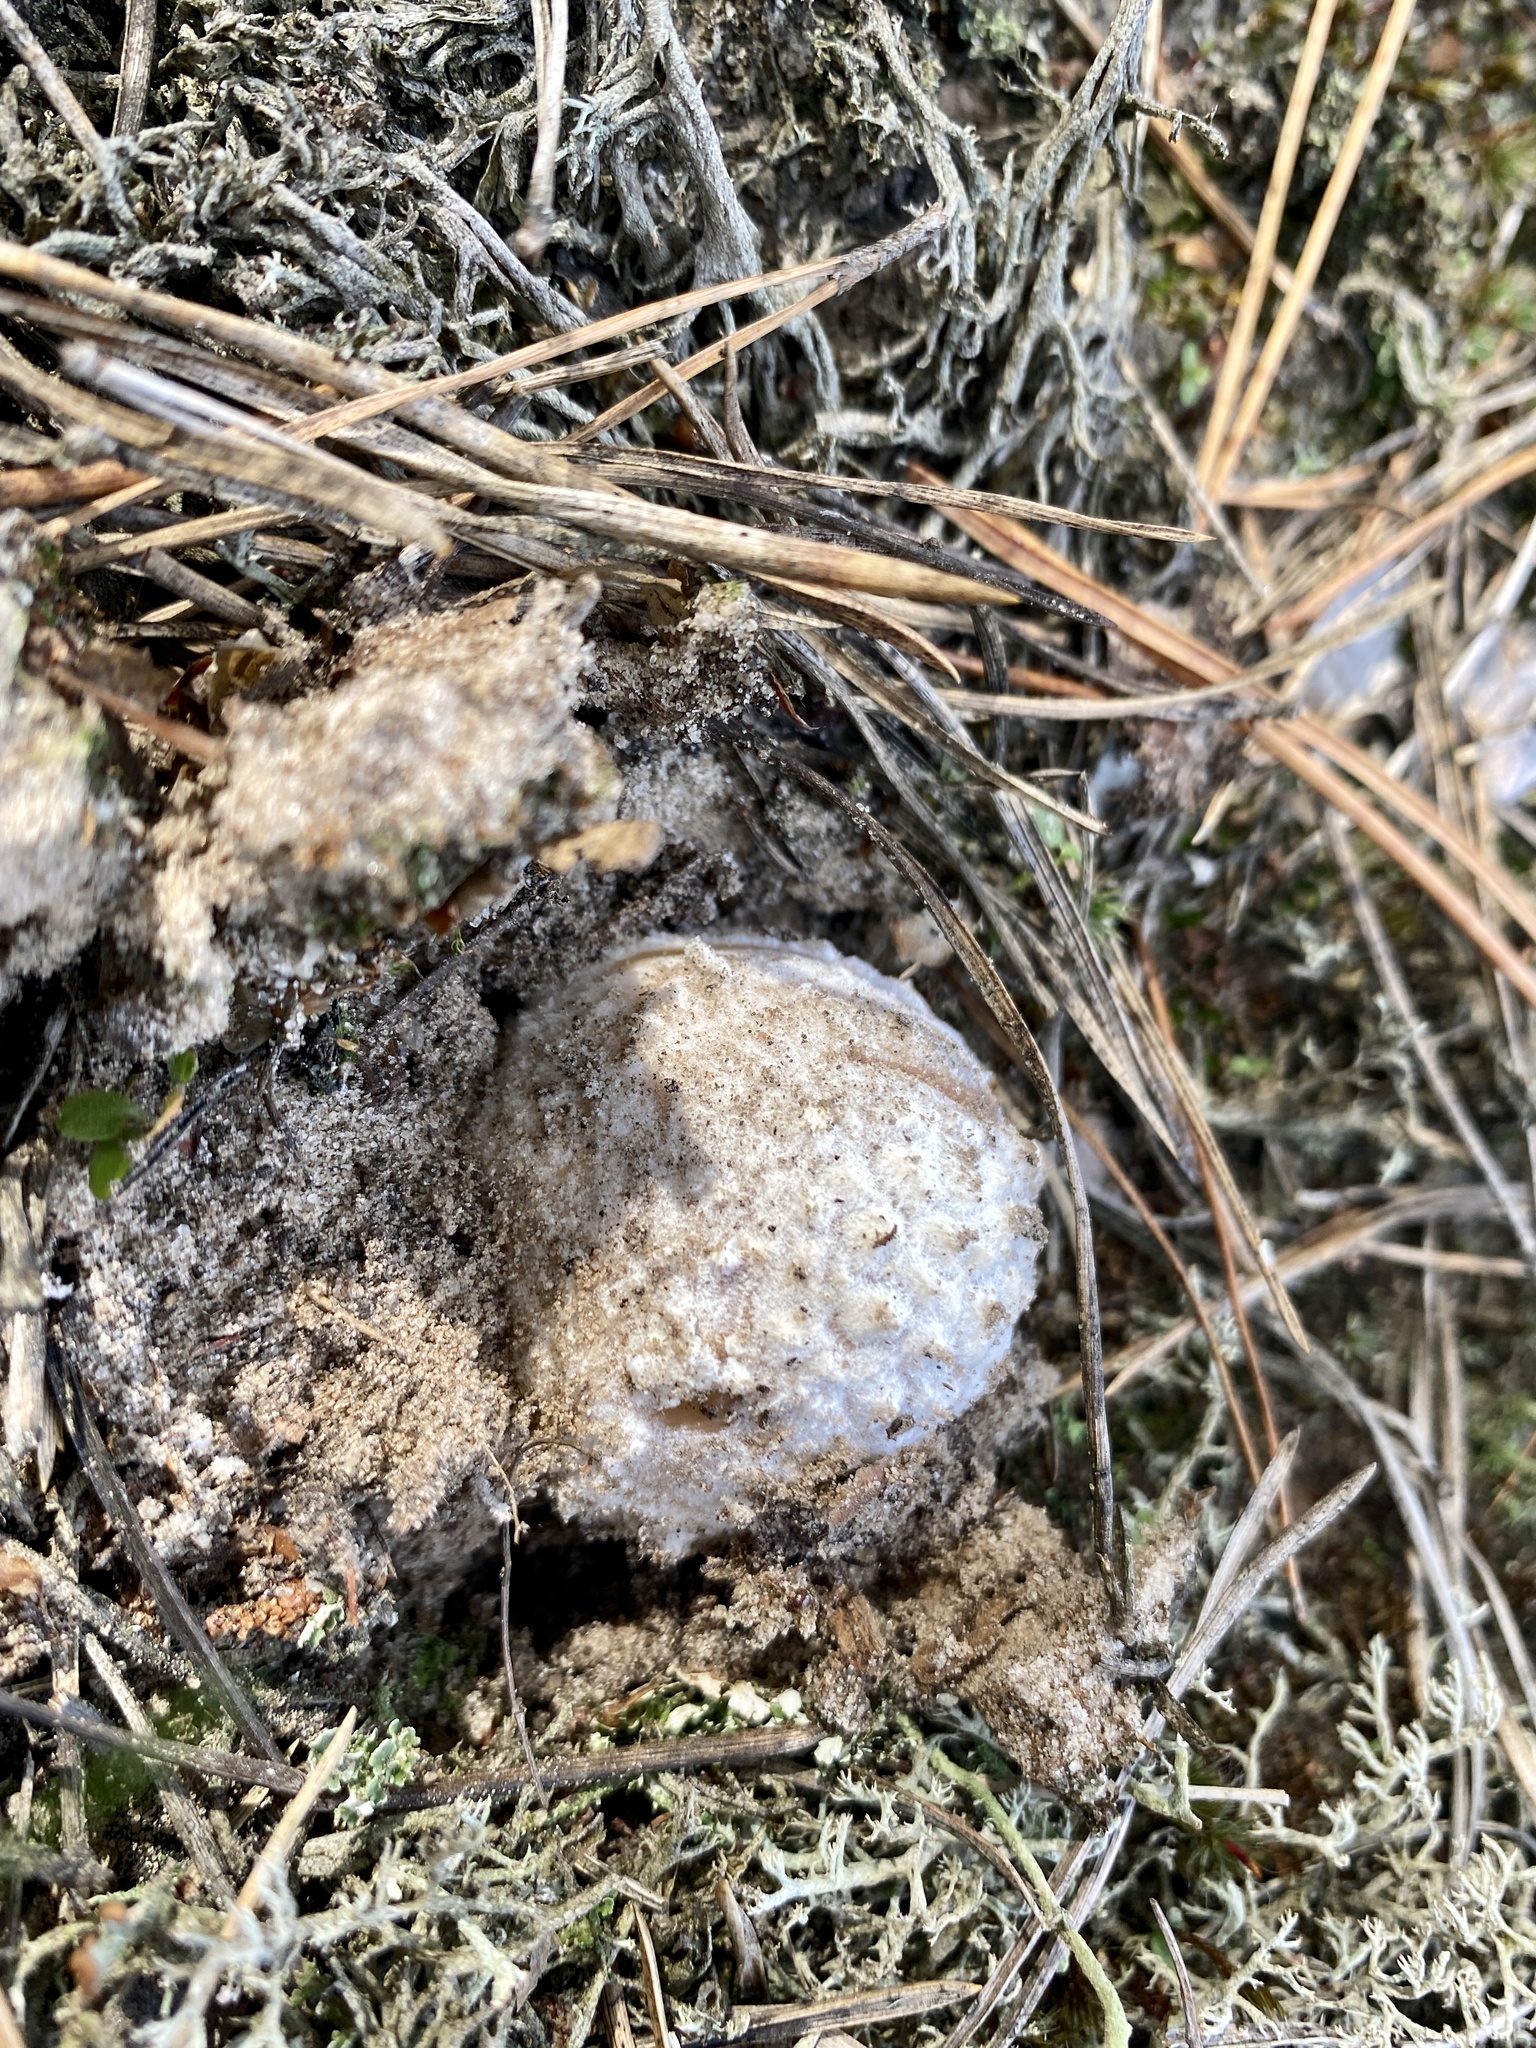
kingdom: Fungi
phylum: Basidiomycota
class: Agaricomycetes
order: Agaricales
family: Amanitaceae
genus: Amanita
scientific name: Amanita pantherina
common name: Panthercap
